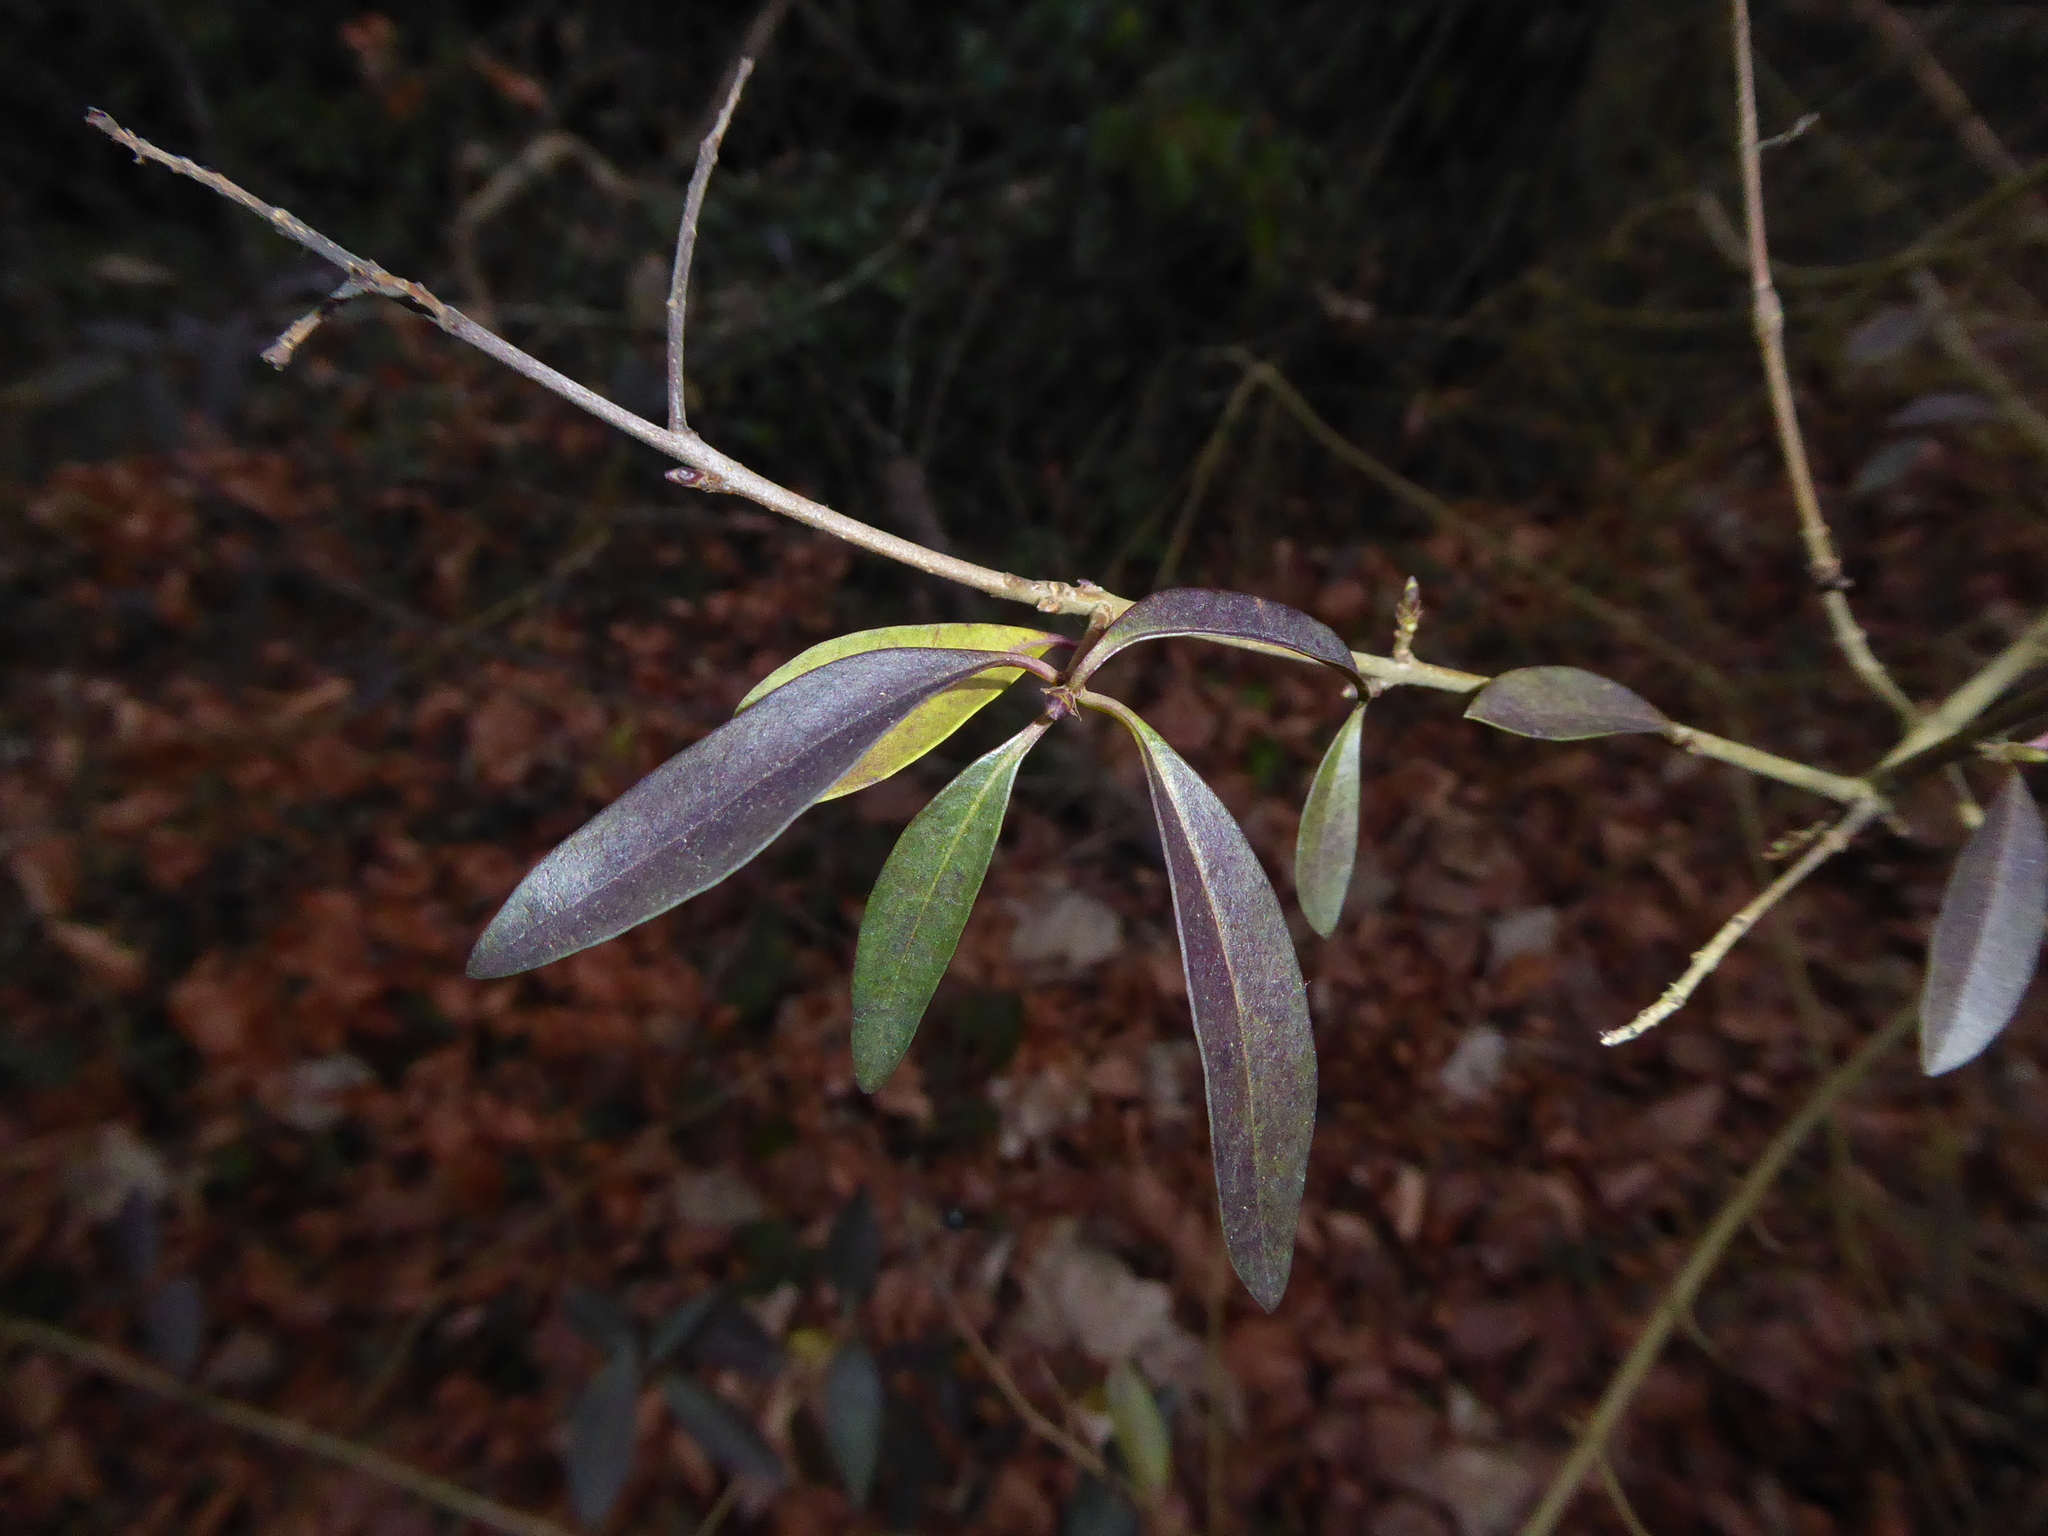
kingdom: Plantae
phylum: Tracheophyta
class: Magnoliopsida
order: Lamiales
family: Oleaceae
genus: Ligustrum
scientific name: Ligustrum vulgare
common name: Wild privet
